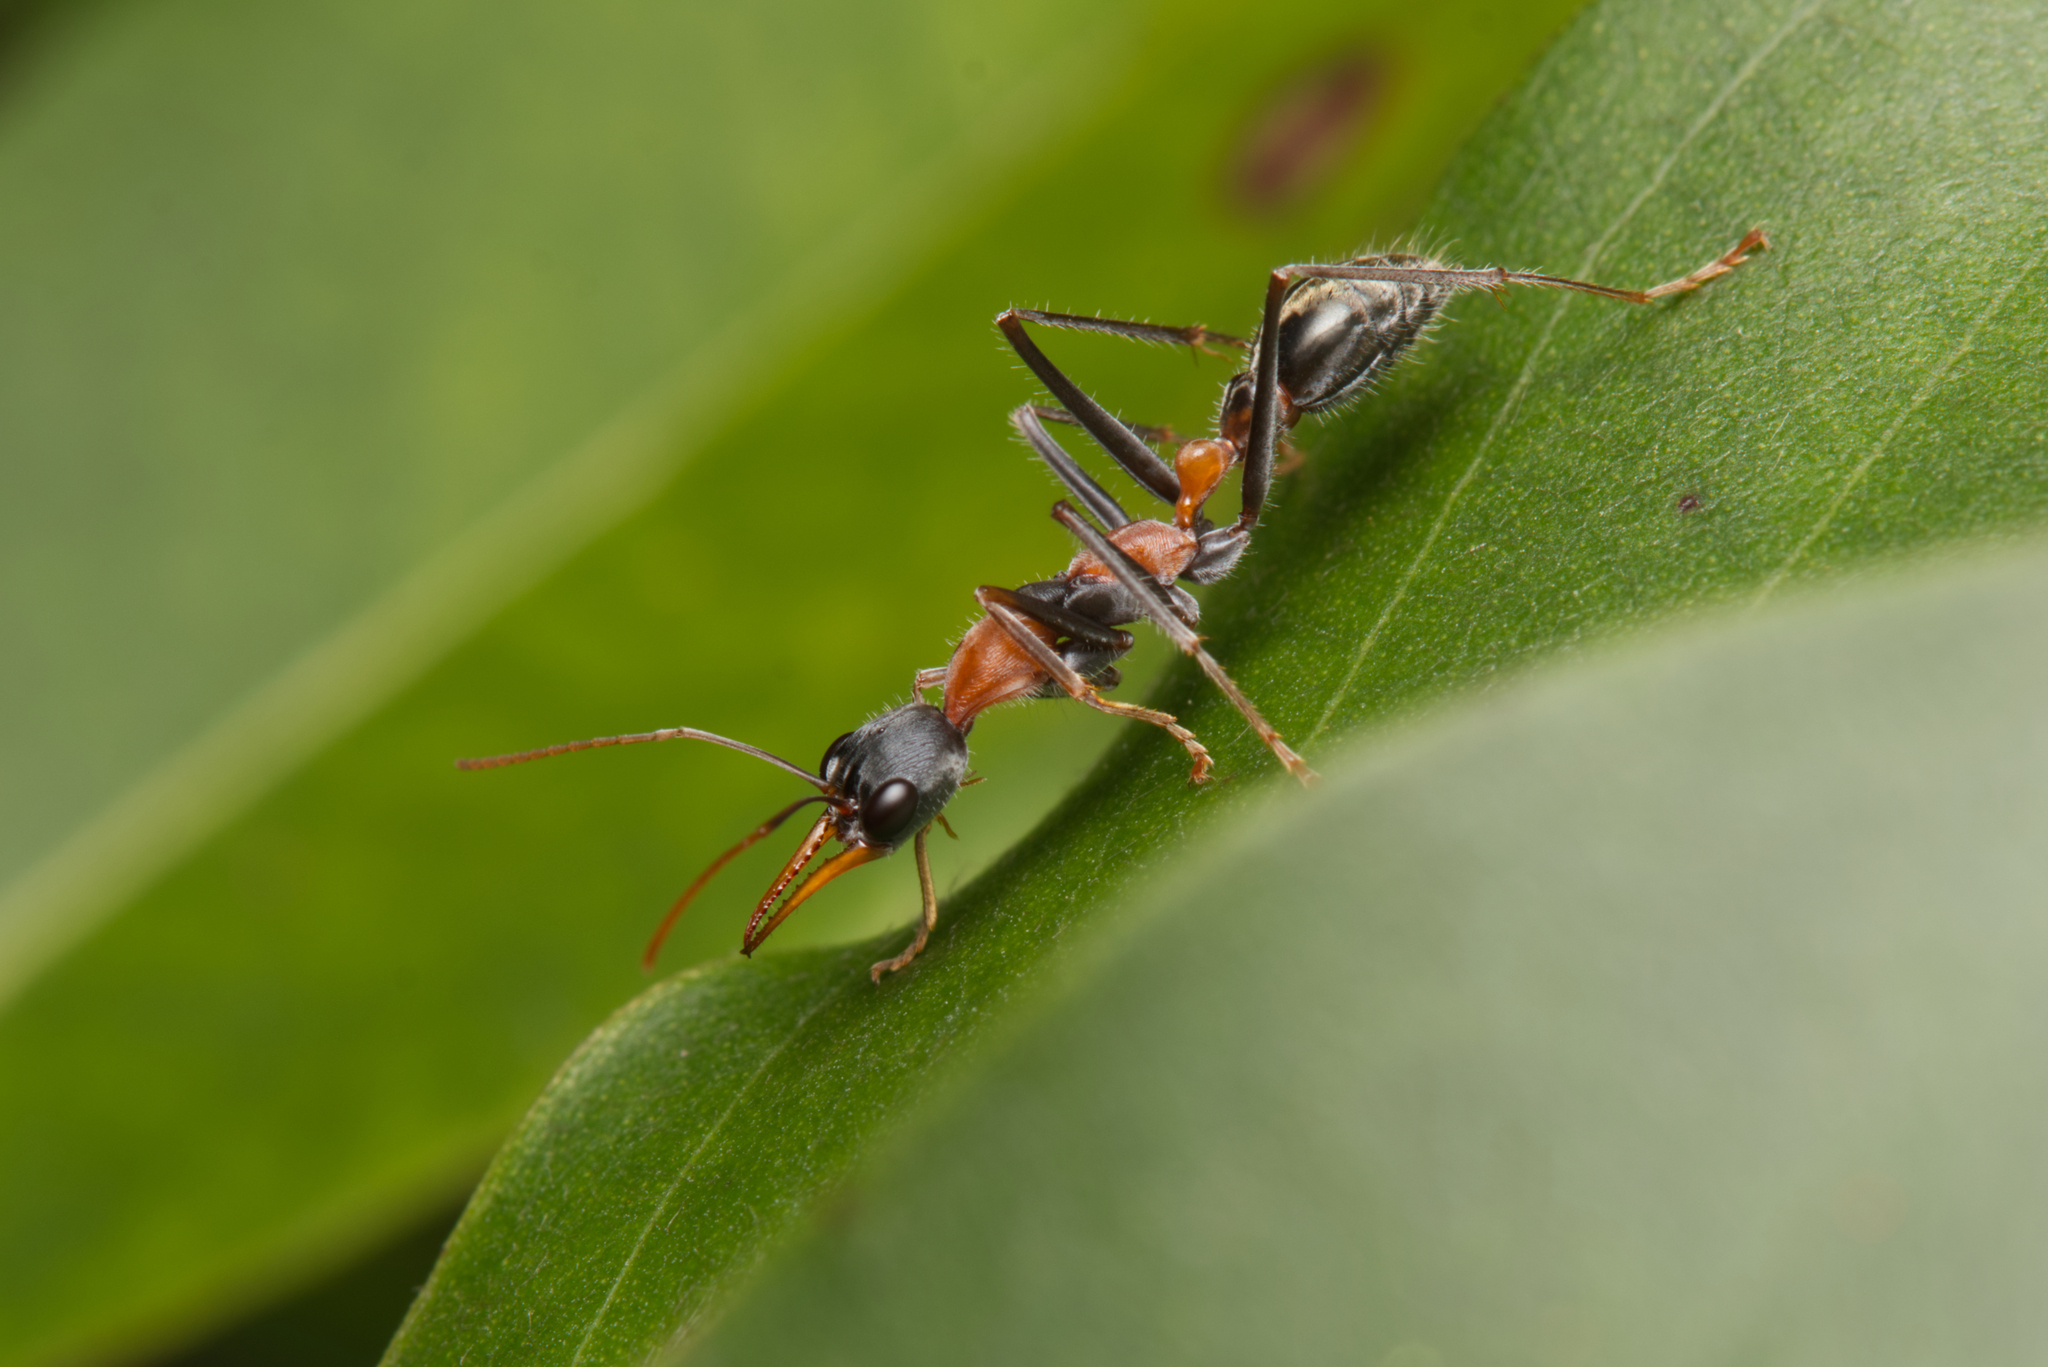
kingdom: Animalia
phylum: Arthropoda
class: Insecta
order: Hymenoptera
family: Formicidae
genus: Myrmecia
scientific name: Myrmecia nigrocincta
